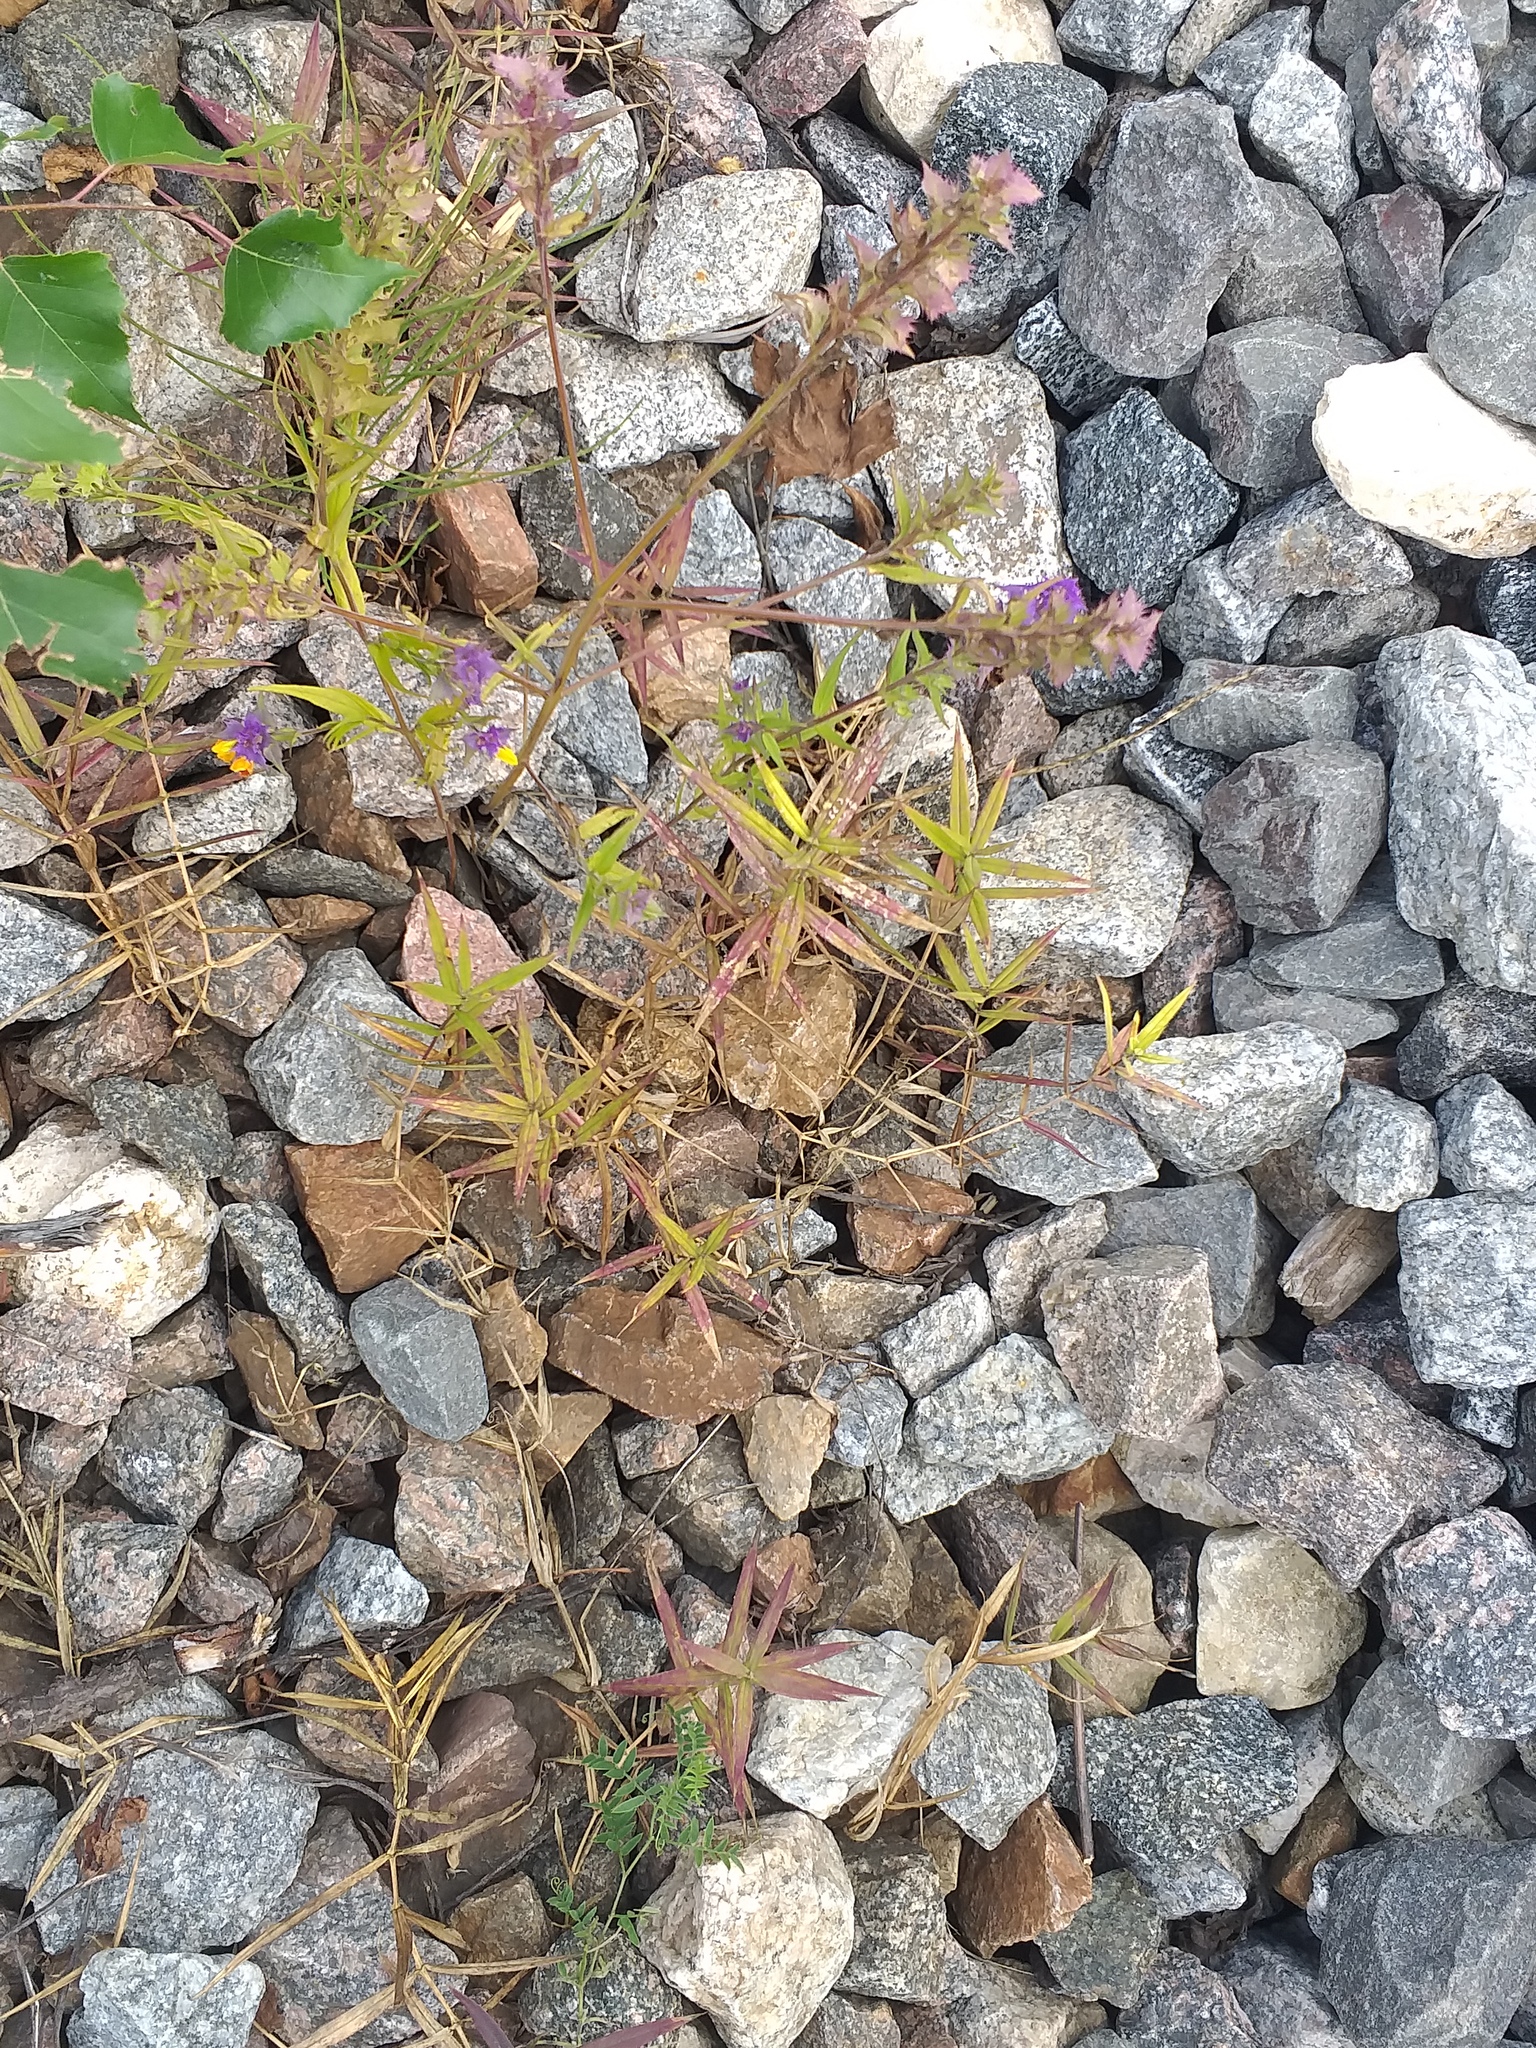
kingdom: Plantae
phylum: Tracheophyta
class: Magnoliopsida
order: Caryophyllales
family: Caryophyllaceae
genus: Rabelera
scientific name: Rabelera holostea
